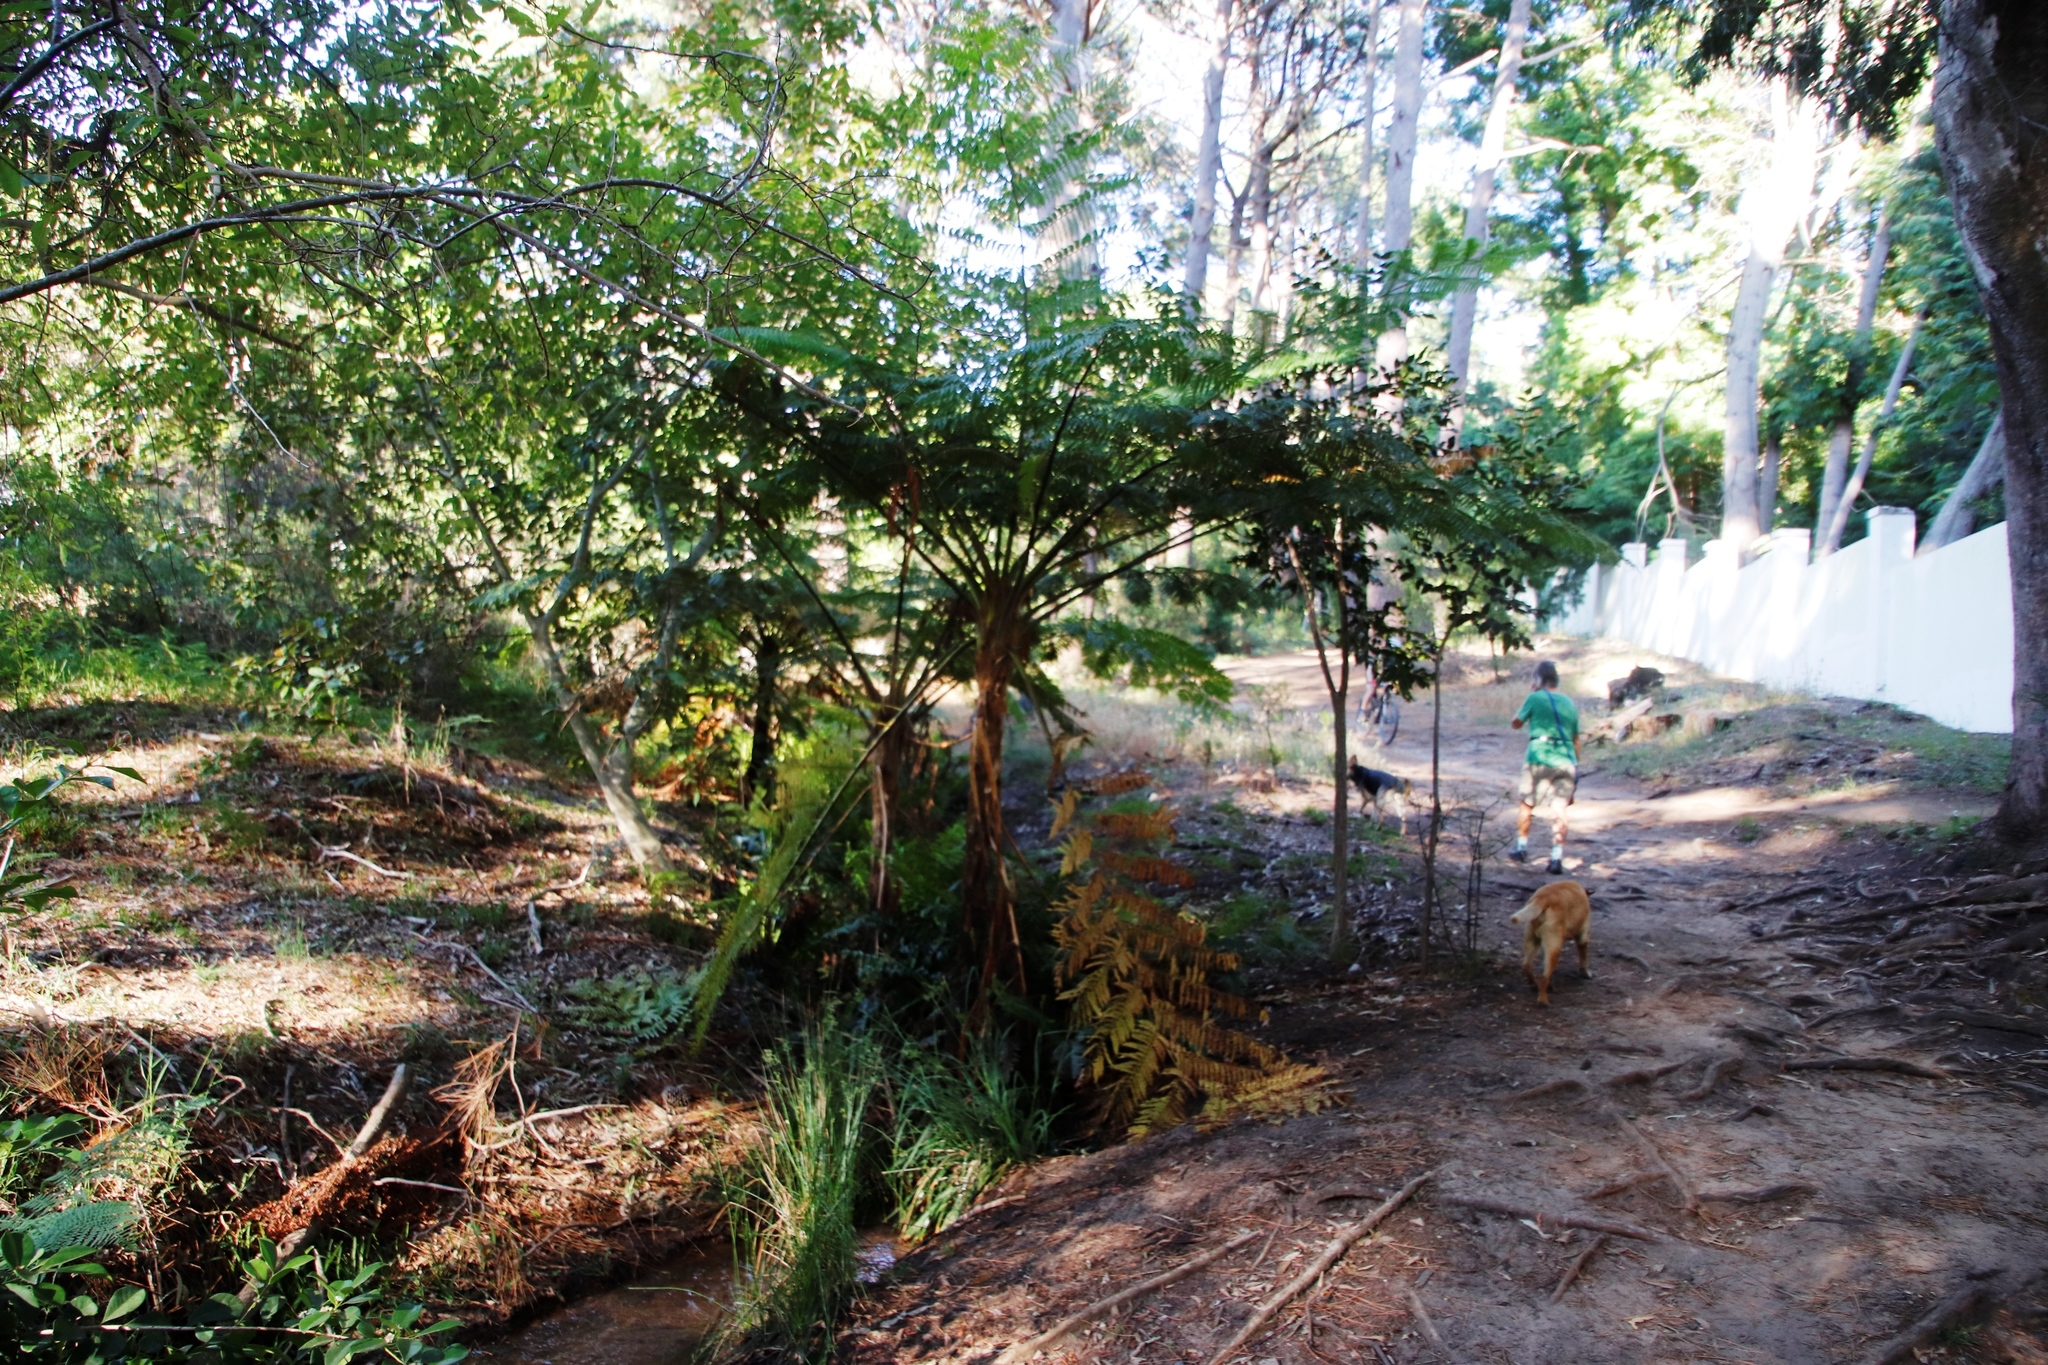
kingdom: Plantae
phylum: Tracheophyta
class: Polypodiopsida
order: Cyatheales
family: Cyatheaceae
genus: Sphaeropteris
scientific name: Sphaeropteris cooperi
